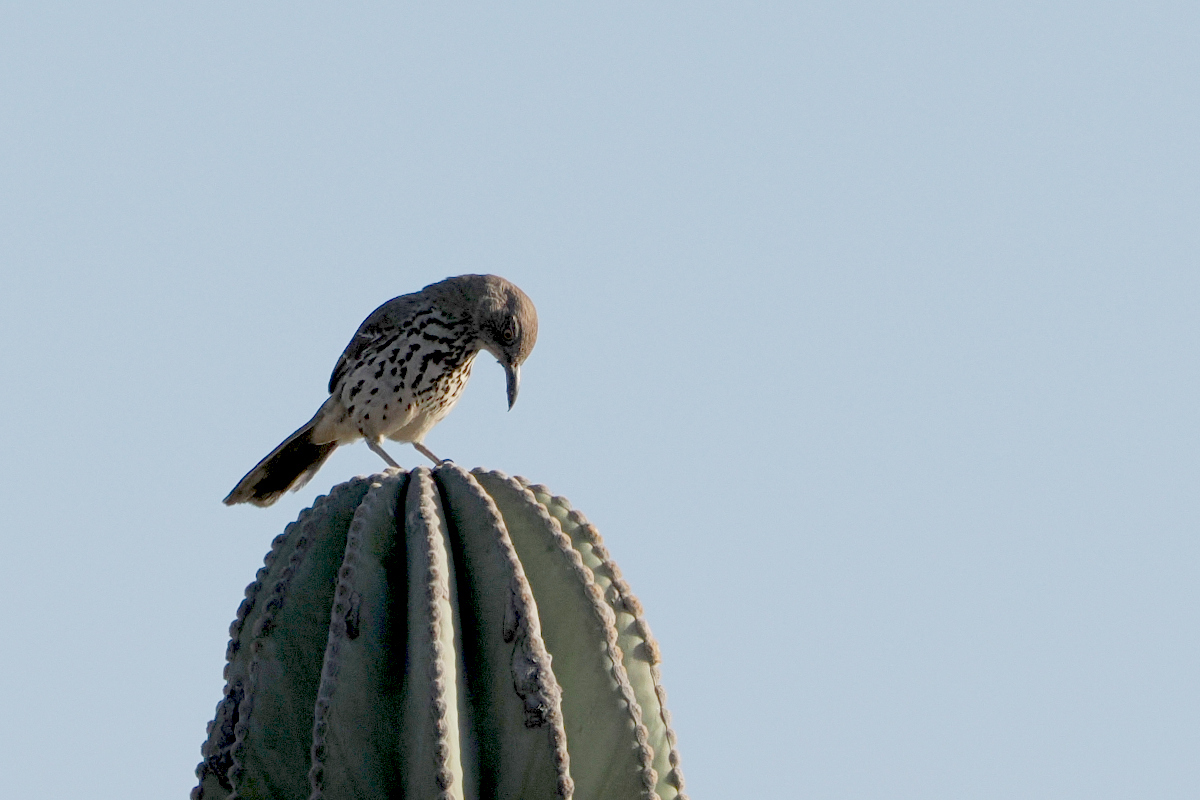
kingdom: Animalia
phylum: Chordata
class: Aves
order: Passeriformes
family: Mimidae
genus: Toxostoma
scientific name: Toxostoma cinereum
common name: Gray thrasher
